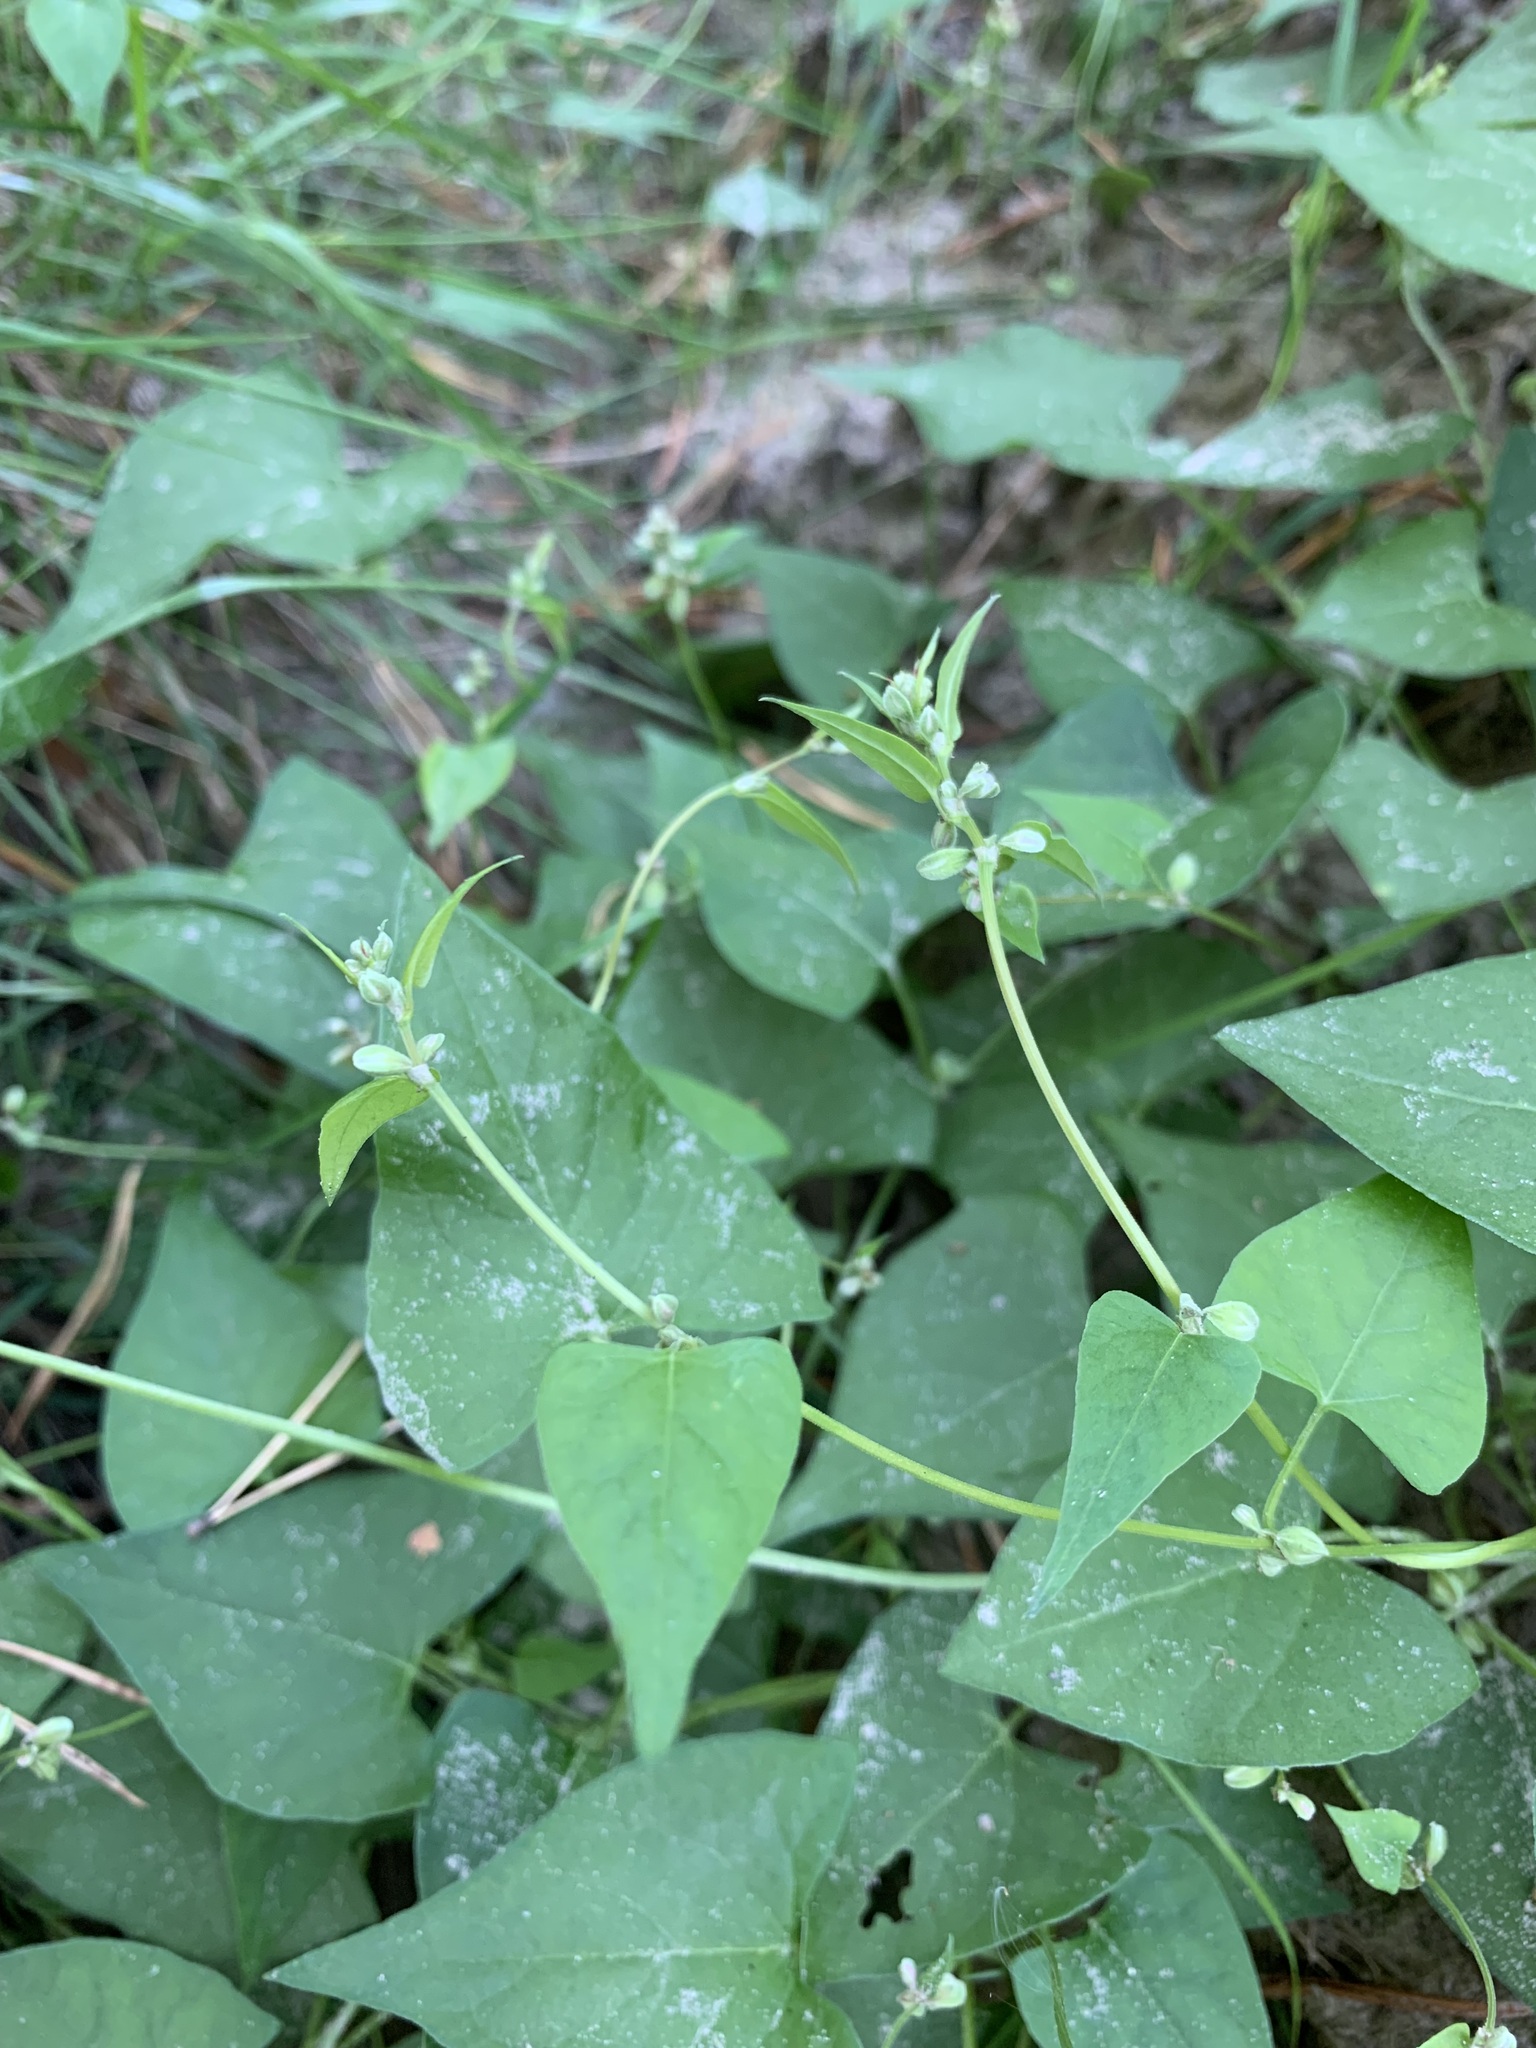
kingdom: Plantae
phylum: Tracheophyta
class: Magnoliopsida
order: Caryophyllales
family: Polygonaceae
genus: Fallopia
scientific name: Fallopia convolvulus
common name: Black bindweed
